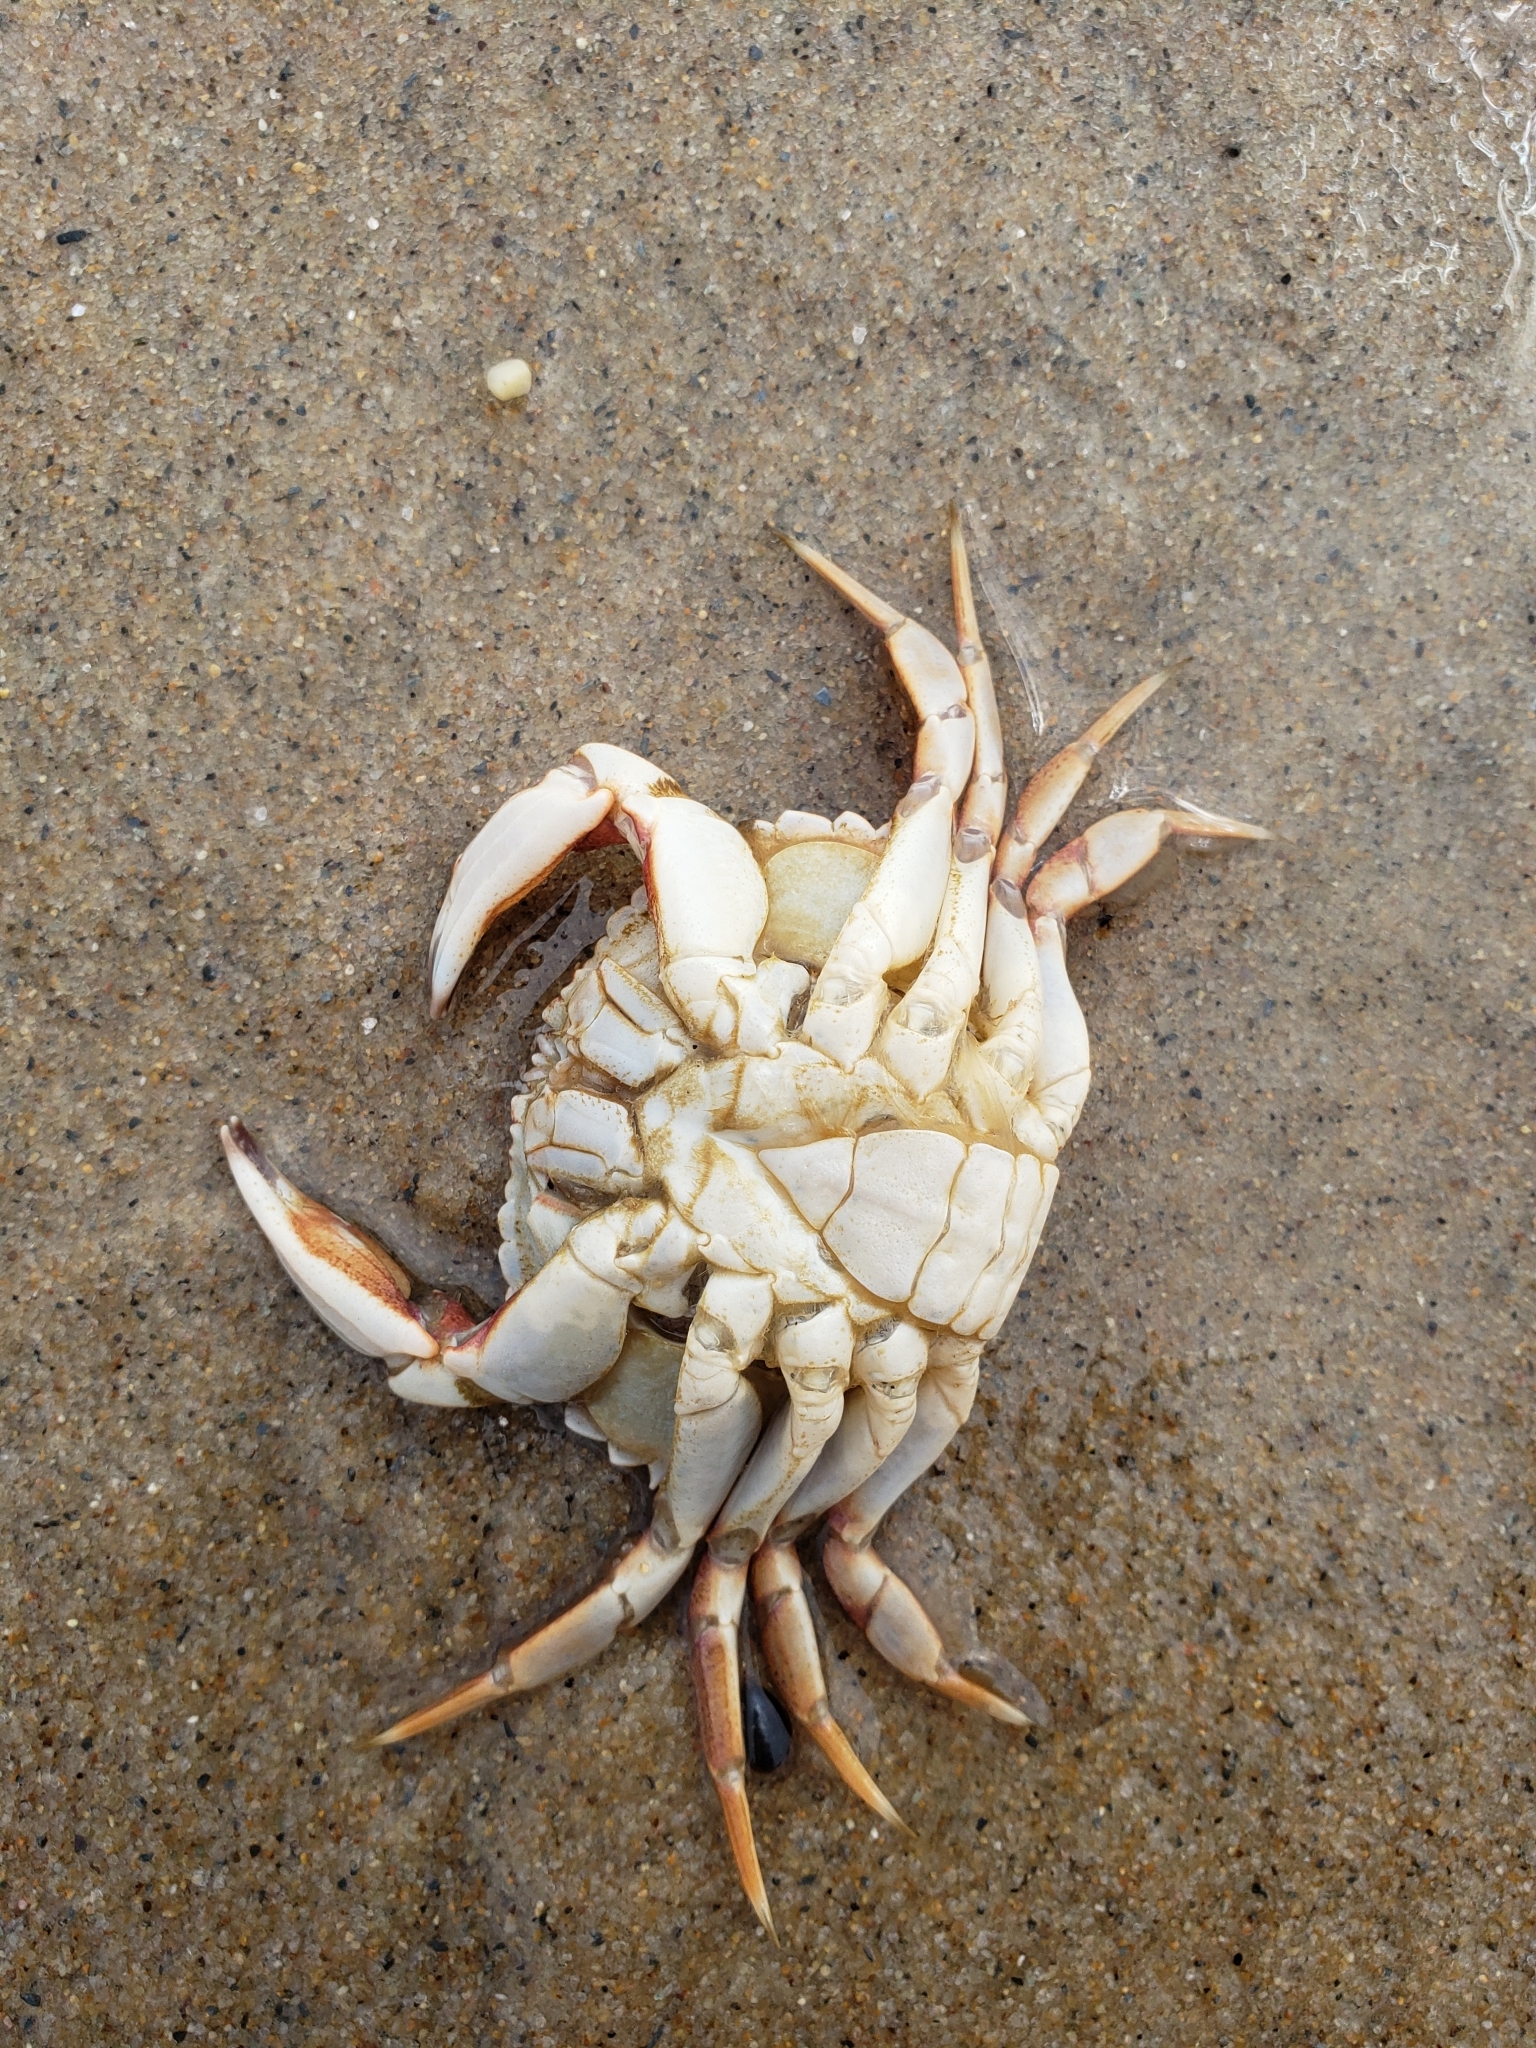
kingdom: Animalia
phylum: Arthropoda
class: Malacostraca
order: Decapoda
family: Cancridae
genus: Cancer
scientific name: Cancer irroratus
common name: Atlantic rock crab
